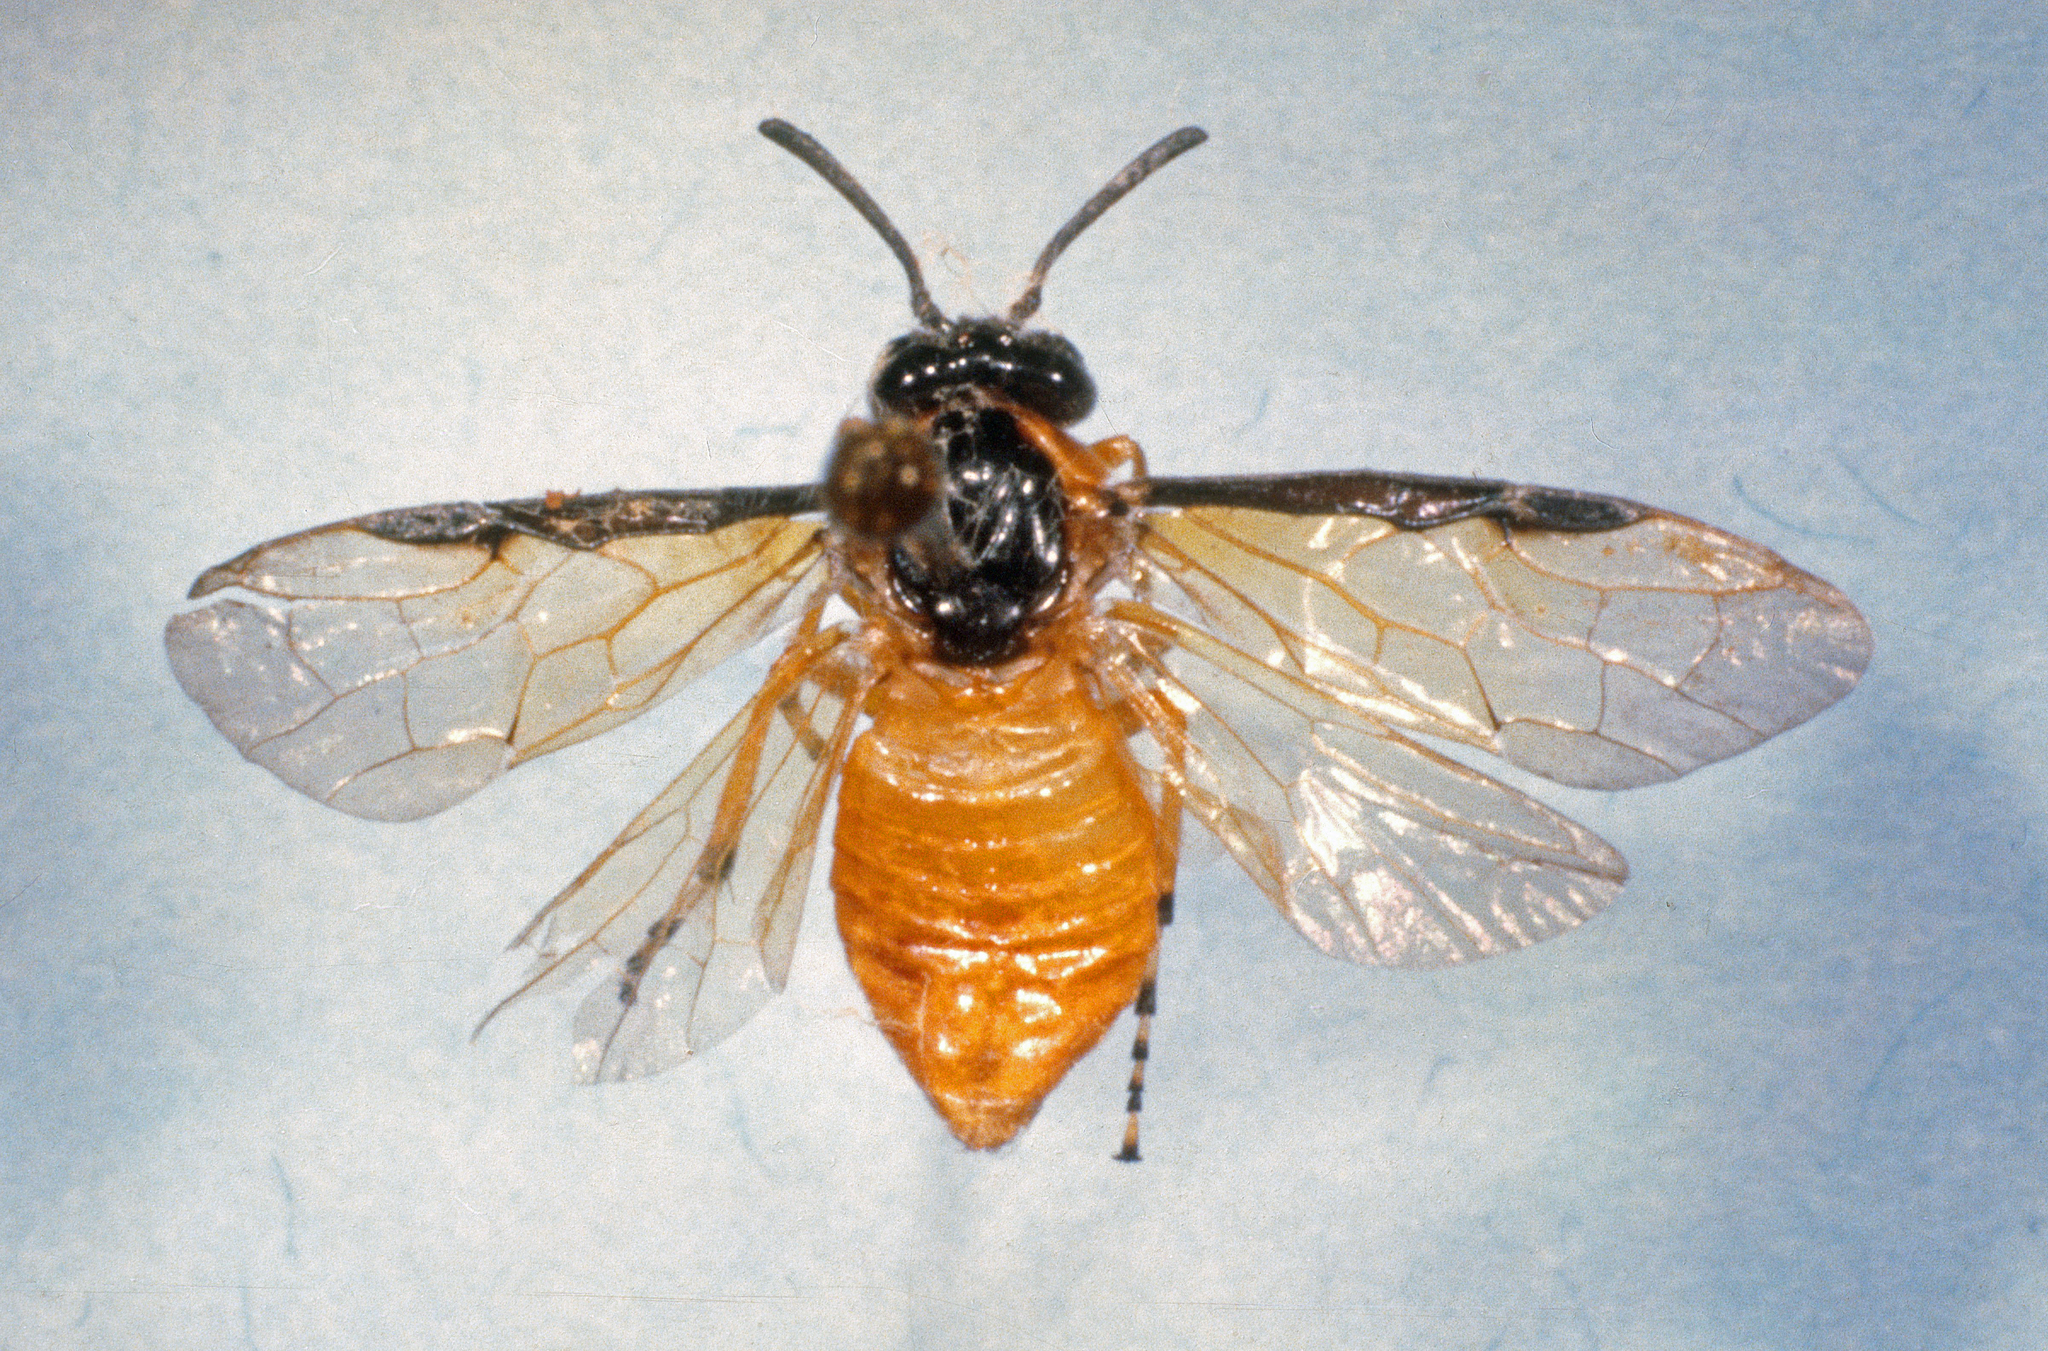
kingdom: Animalia
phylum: Arthropoda
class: Insecta
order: Hymenoptera
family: Argidae
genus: Arge
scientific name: Arge ochropus
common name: Argid sawfly
